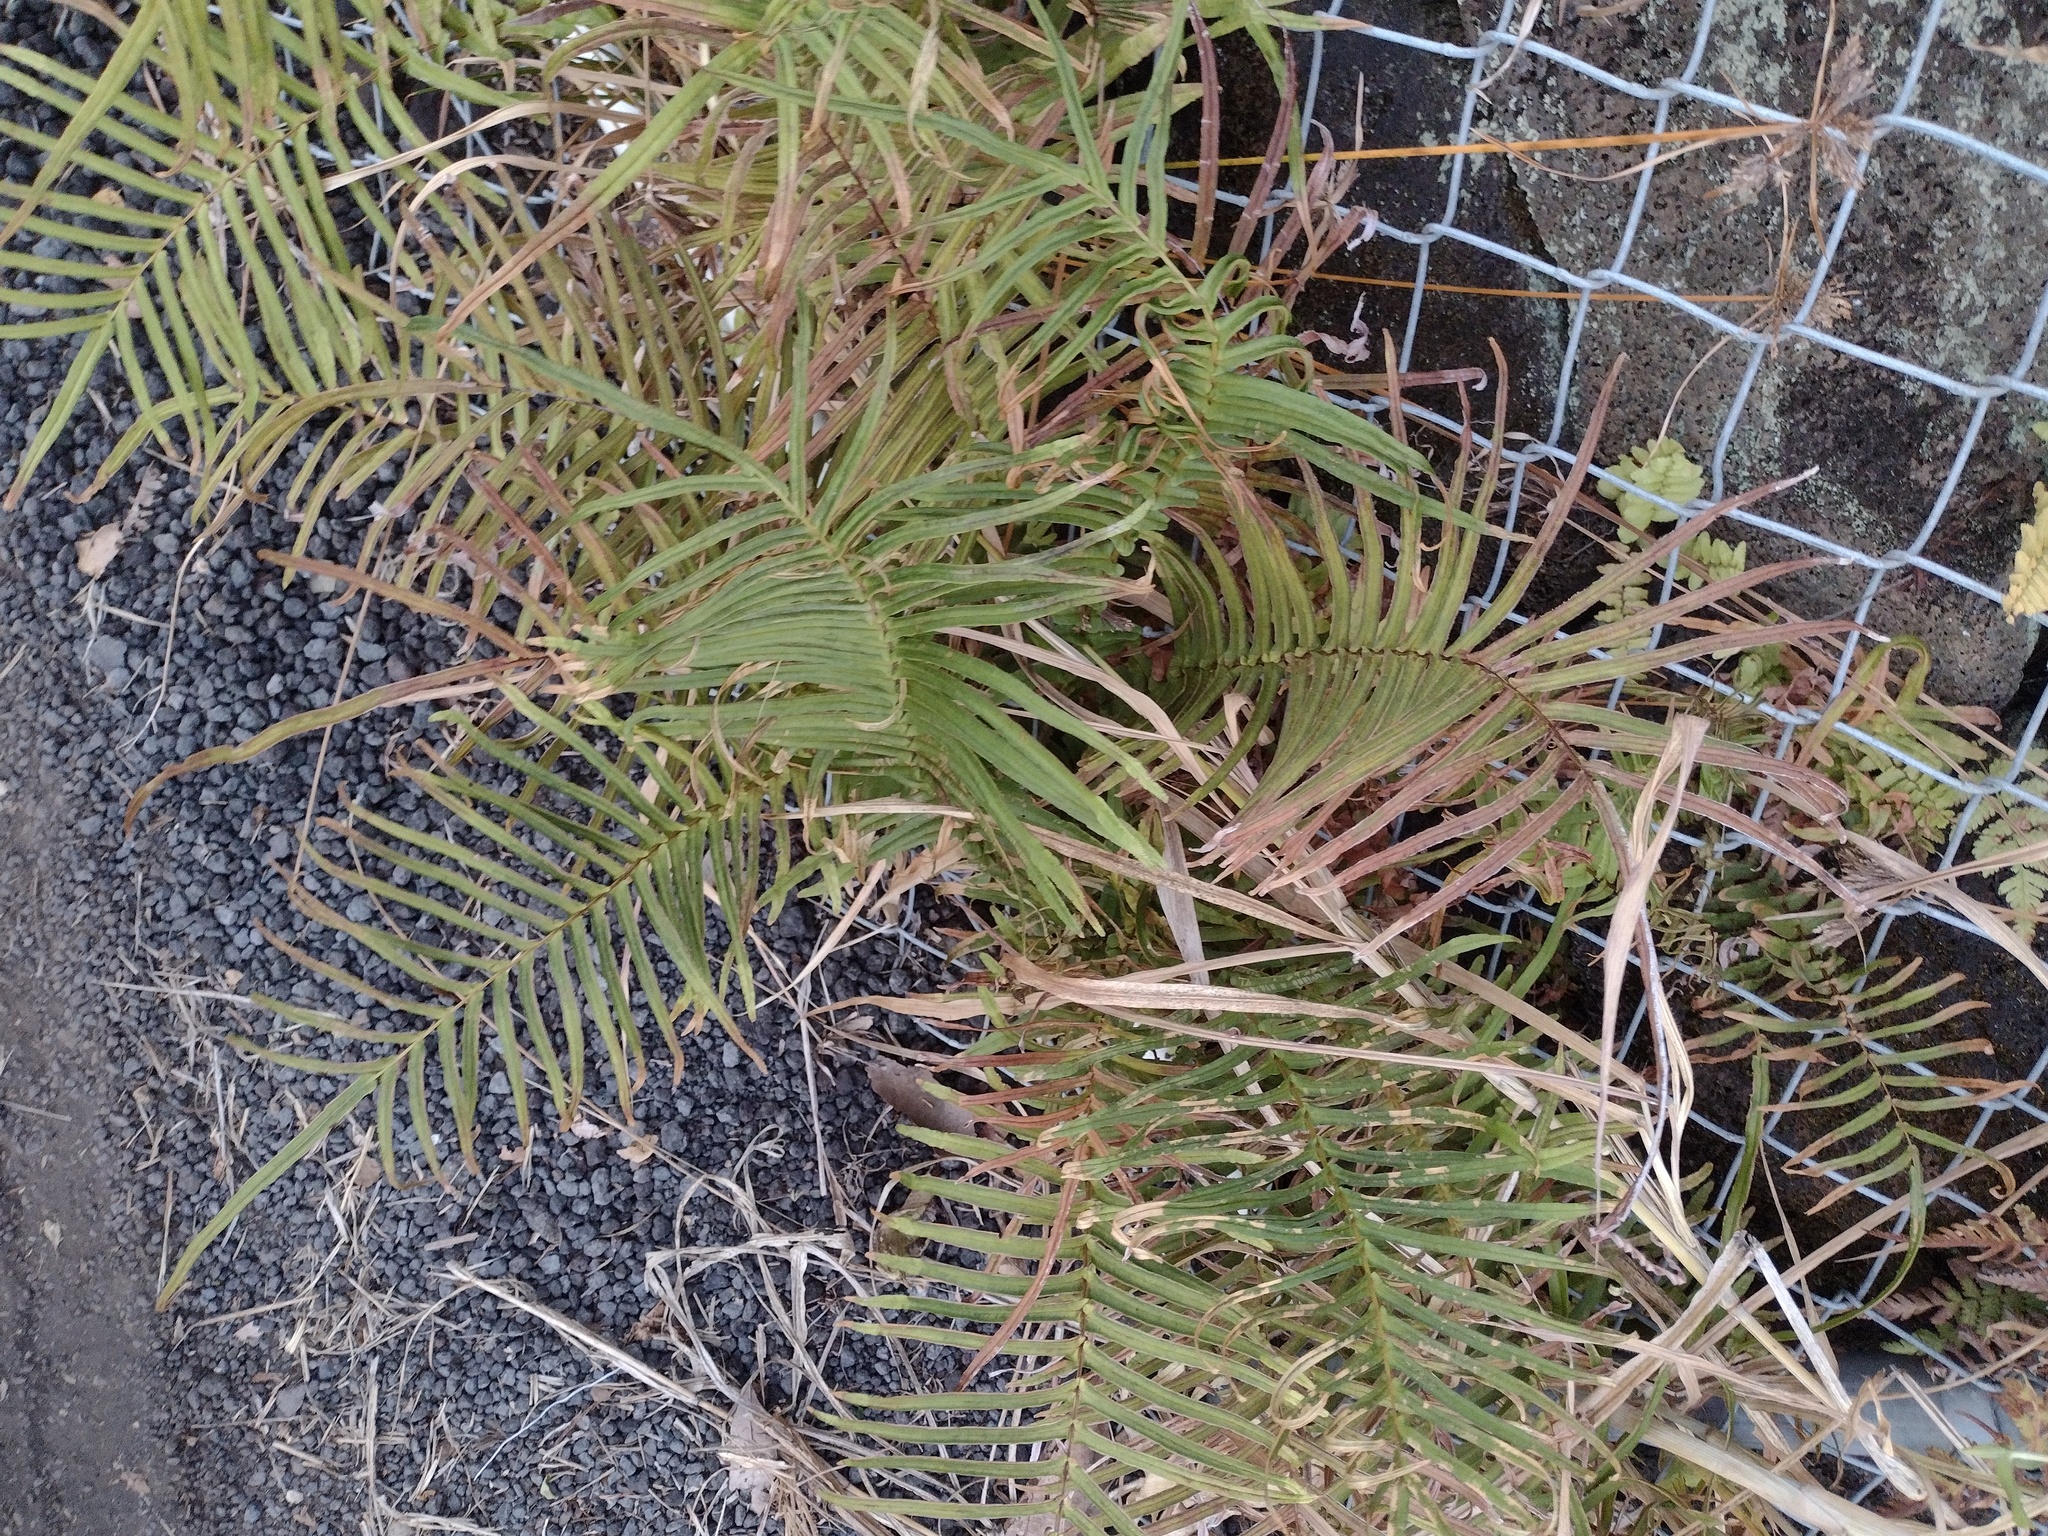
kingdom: Plantae
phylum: Tracheophyta
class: Polypodiopsida
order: Polypodiales
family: Pteridaceae
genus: Pteris
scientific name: Pteris vittata
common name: Ladder brake
